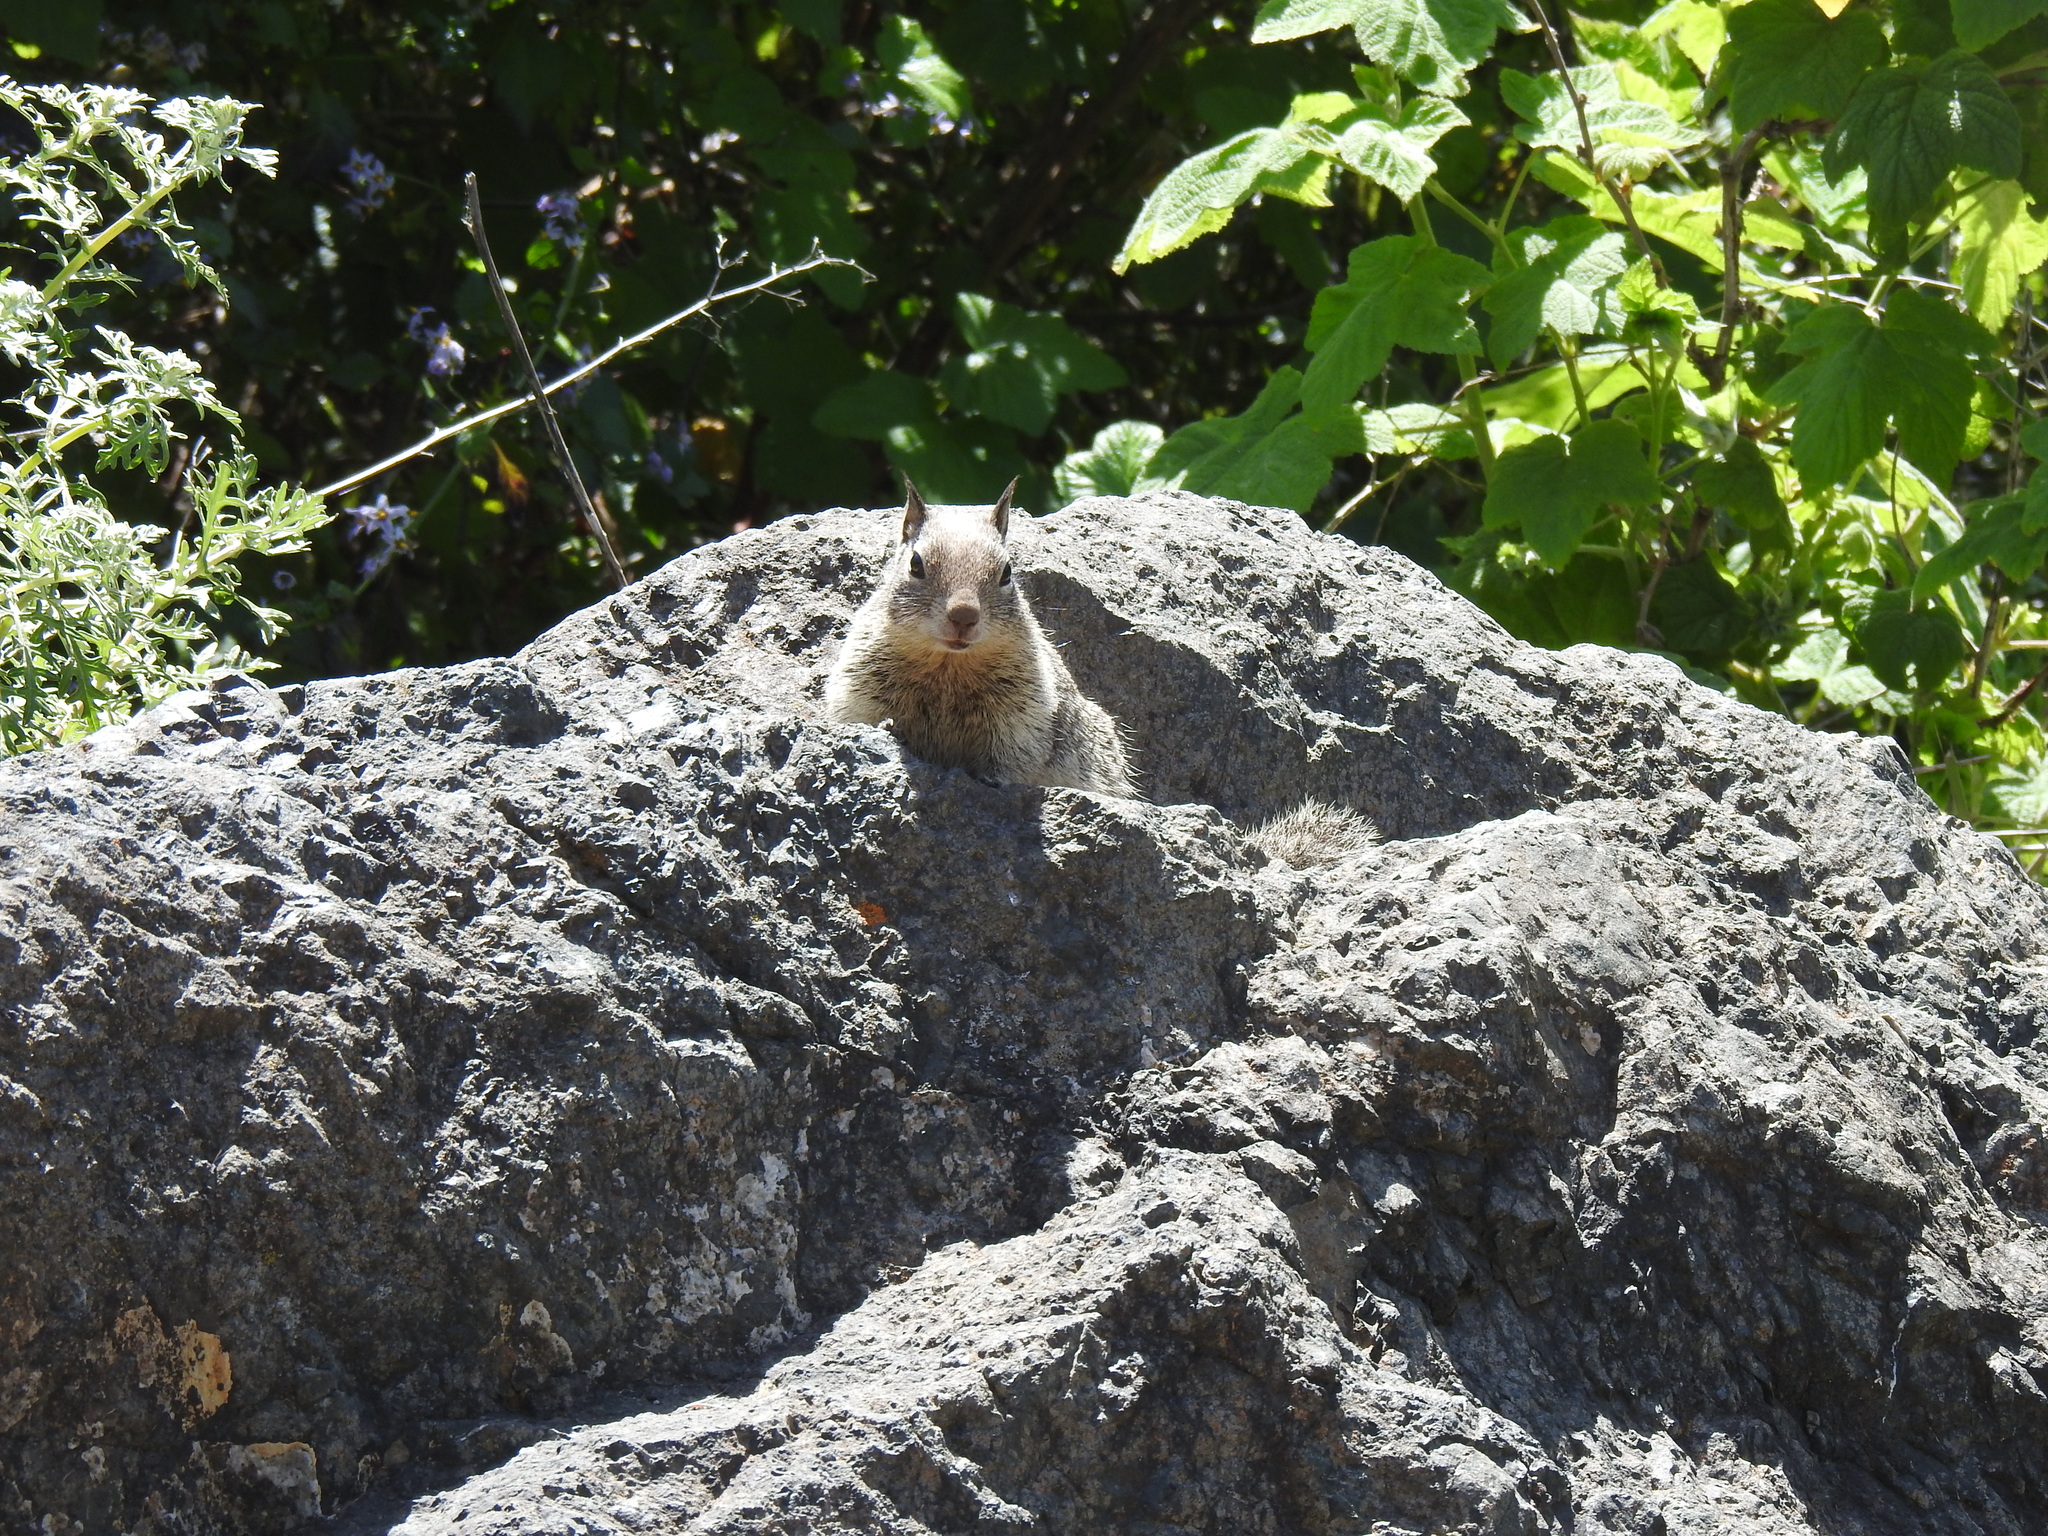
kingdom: Animalia
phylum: Chordata
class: Mammalia
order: Rodentia
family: Sciuridae
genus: Otospermophilus
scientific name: Otospermophilus beecheyi
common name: California ground squirrel
